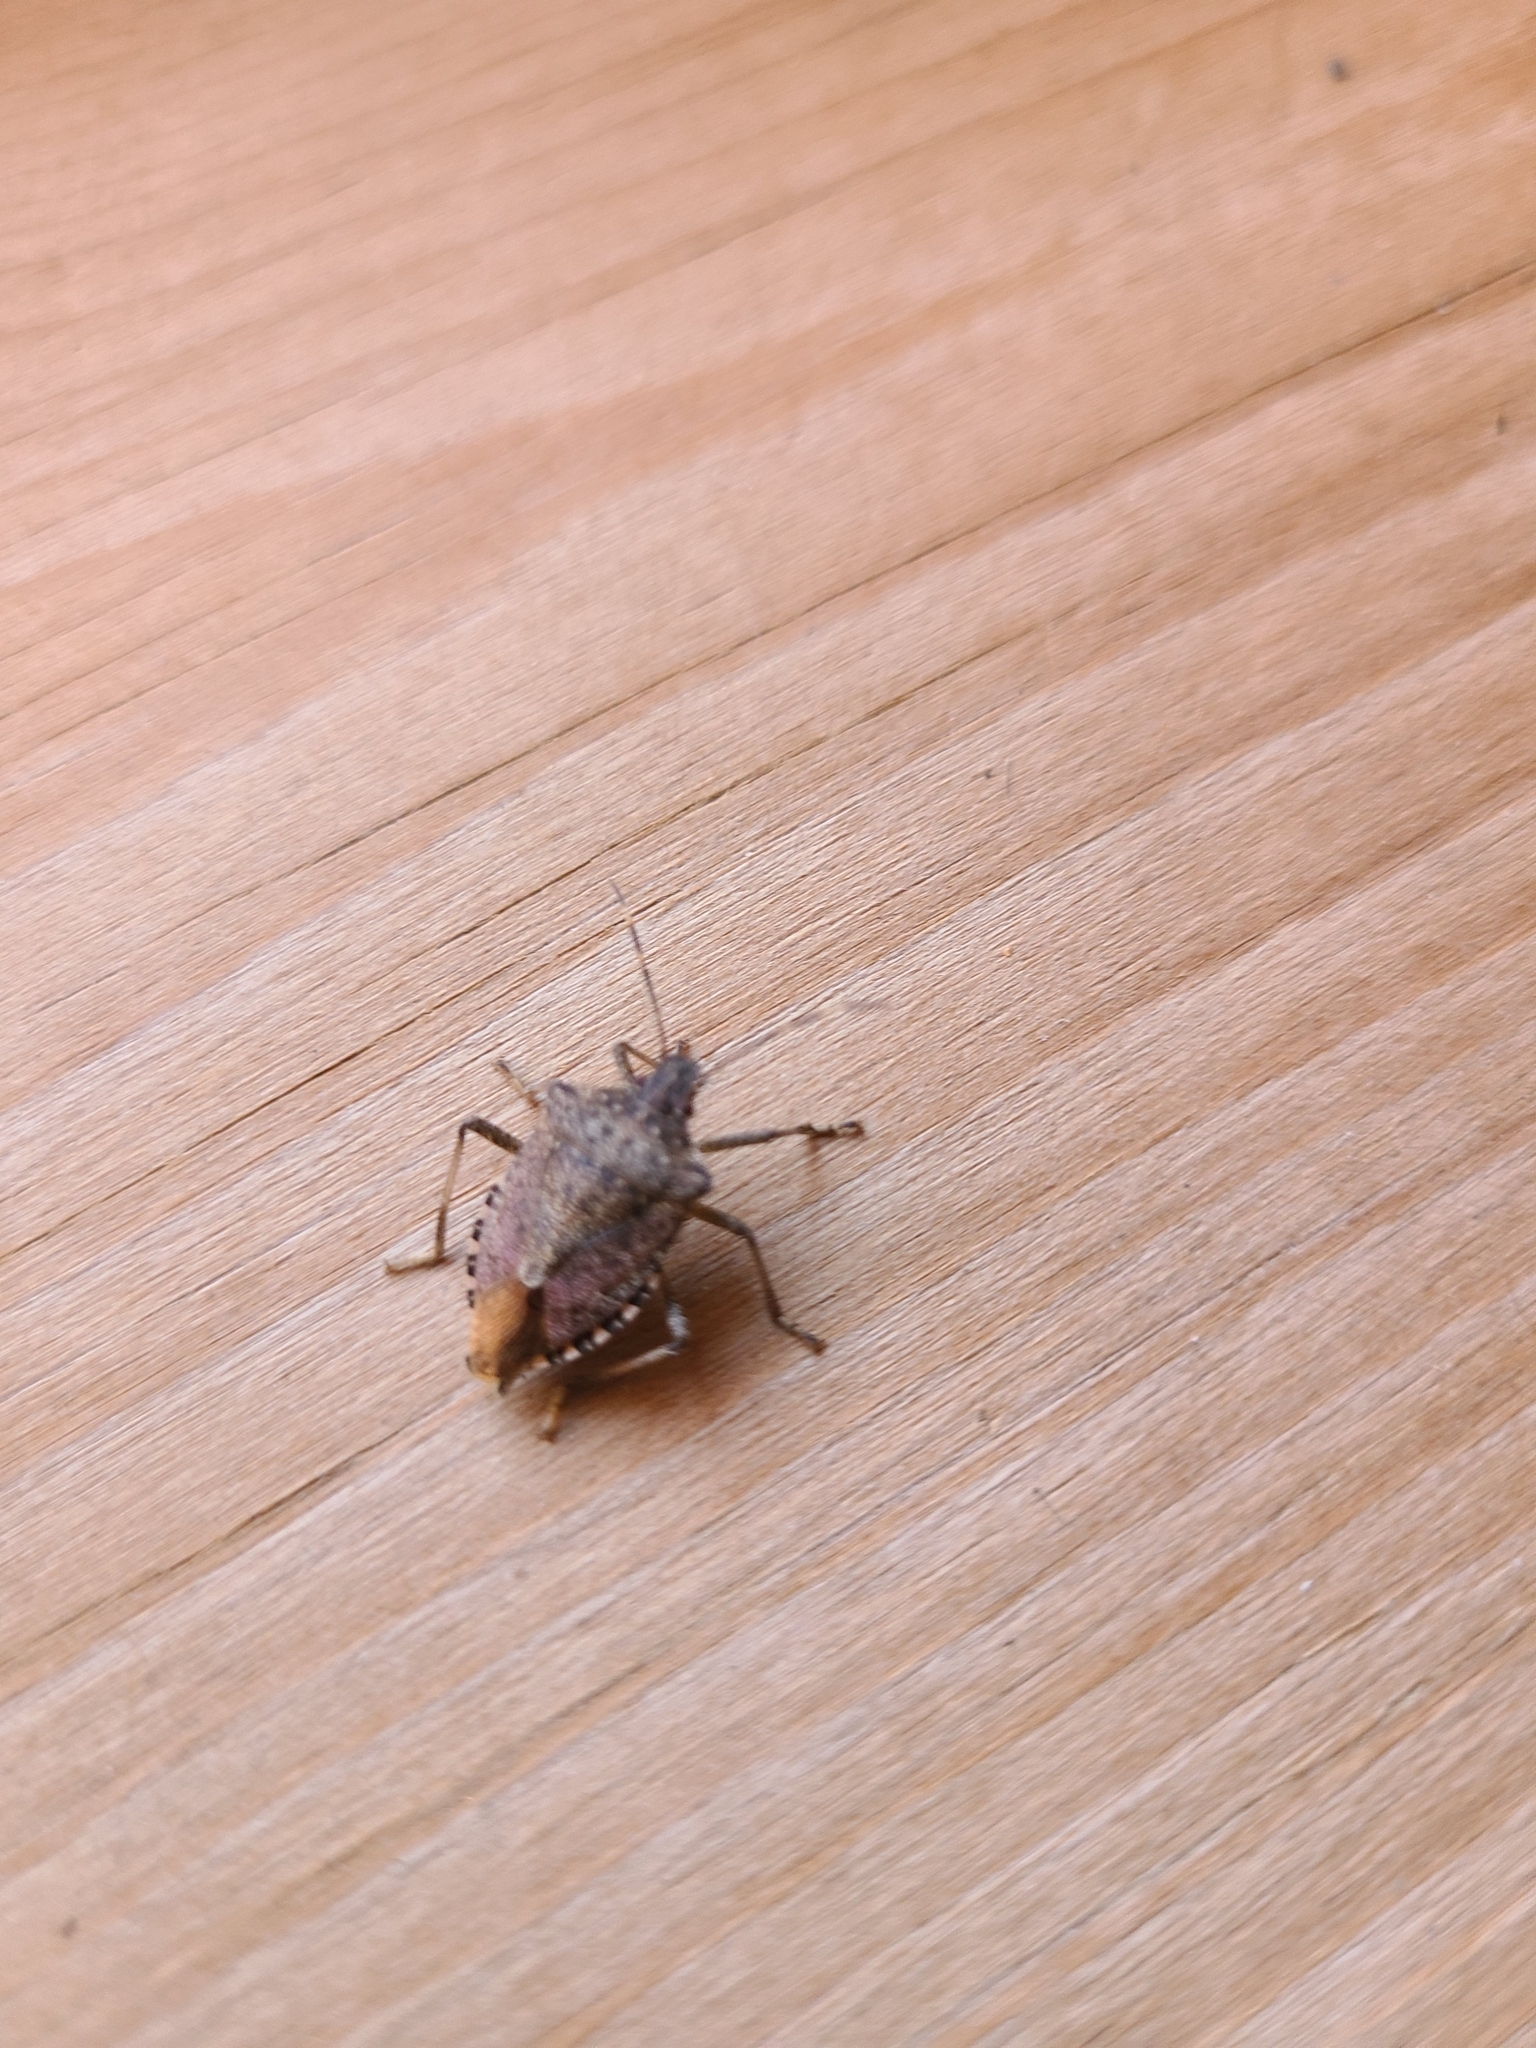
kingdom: Animalia
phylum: Arthropoda
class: Insecta
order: Hemiptera
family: Pentatomidae
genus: Halyomorpha
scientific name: Halyomorpha halys
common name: Brown marmorated stink bug
